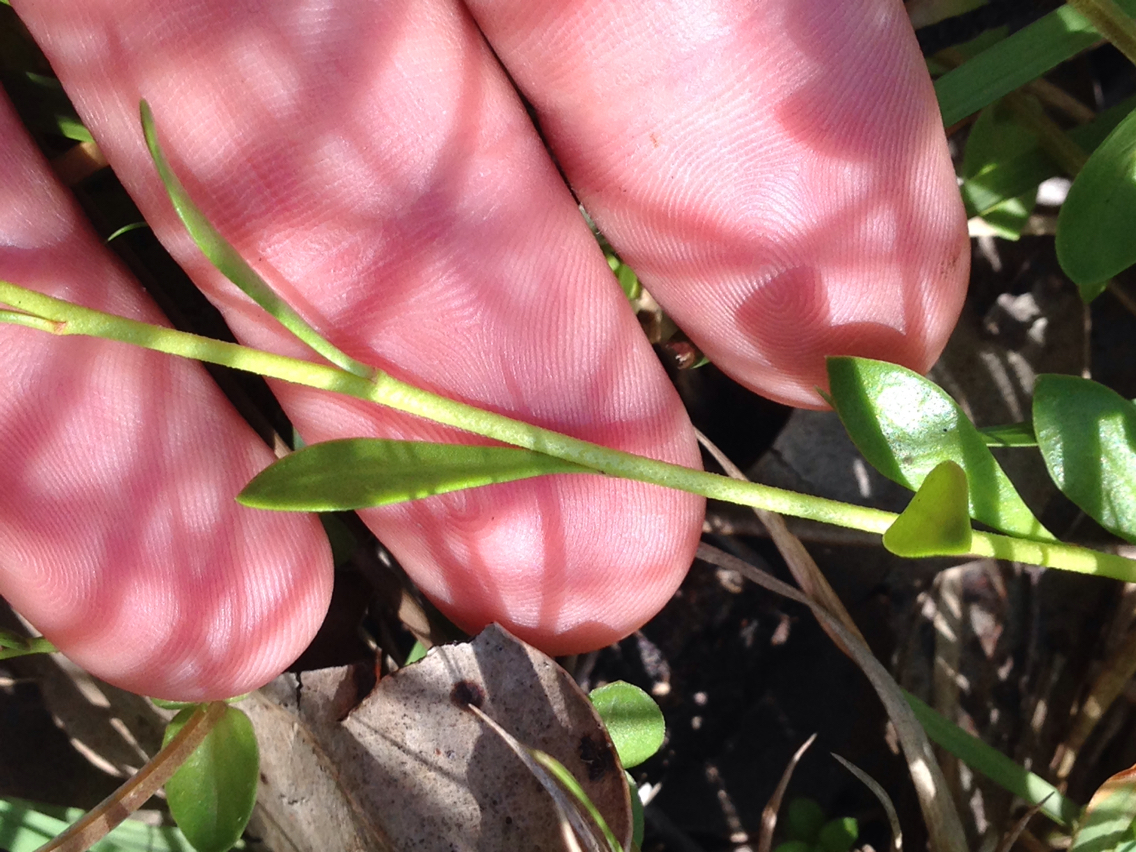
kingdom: Plantae
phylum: Tracheophyta
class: Magnoliopsida
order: Ericales
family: Primulaceae
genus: Samolus
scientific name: Samolus repens
